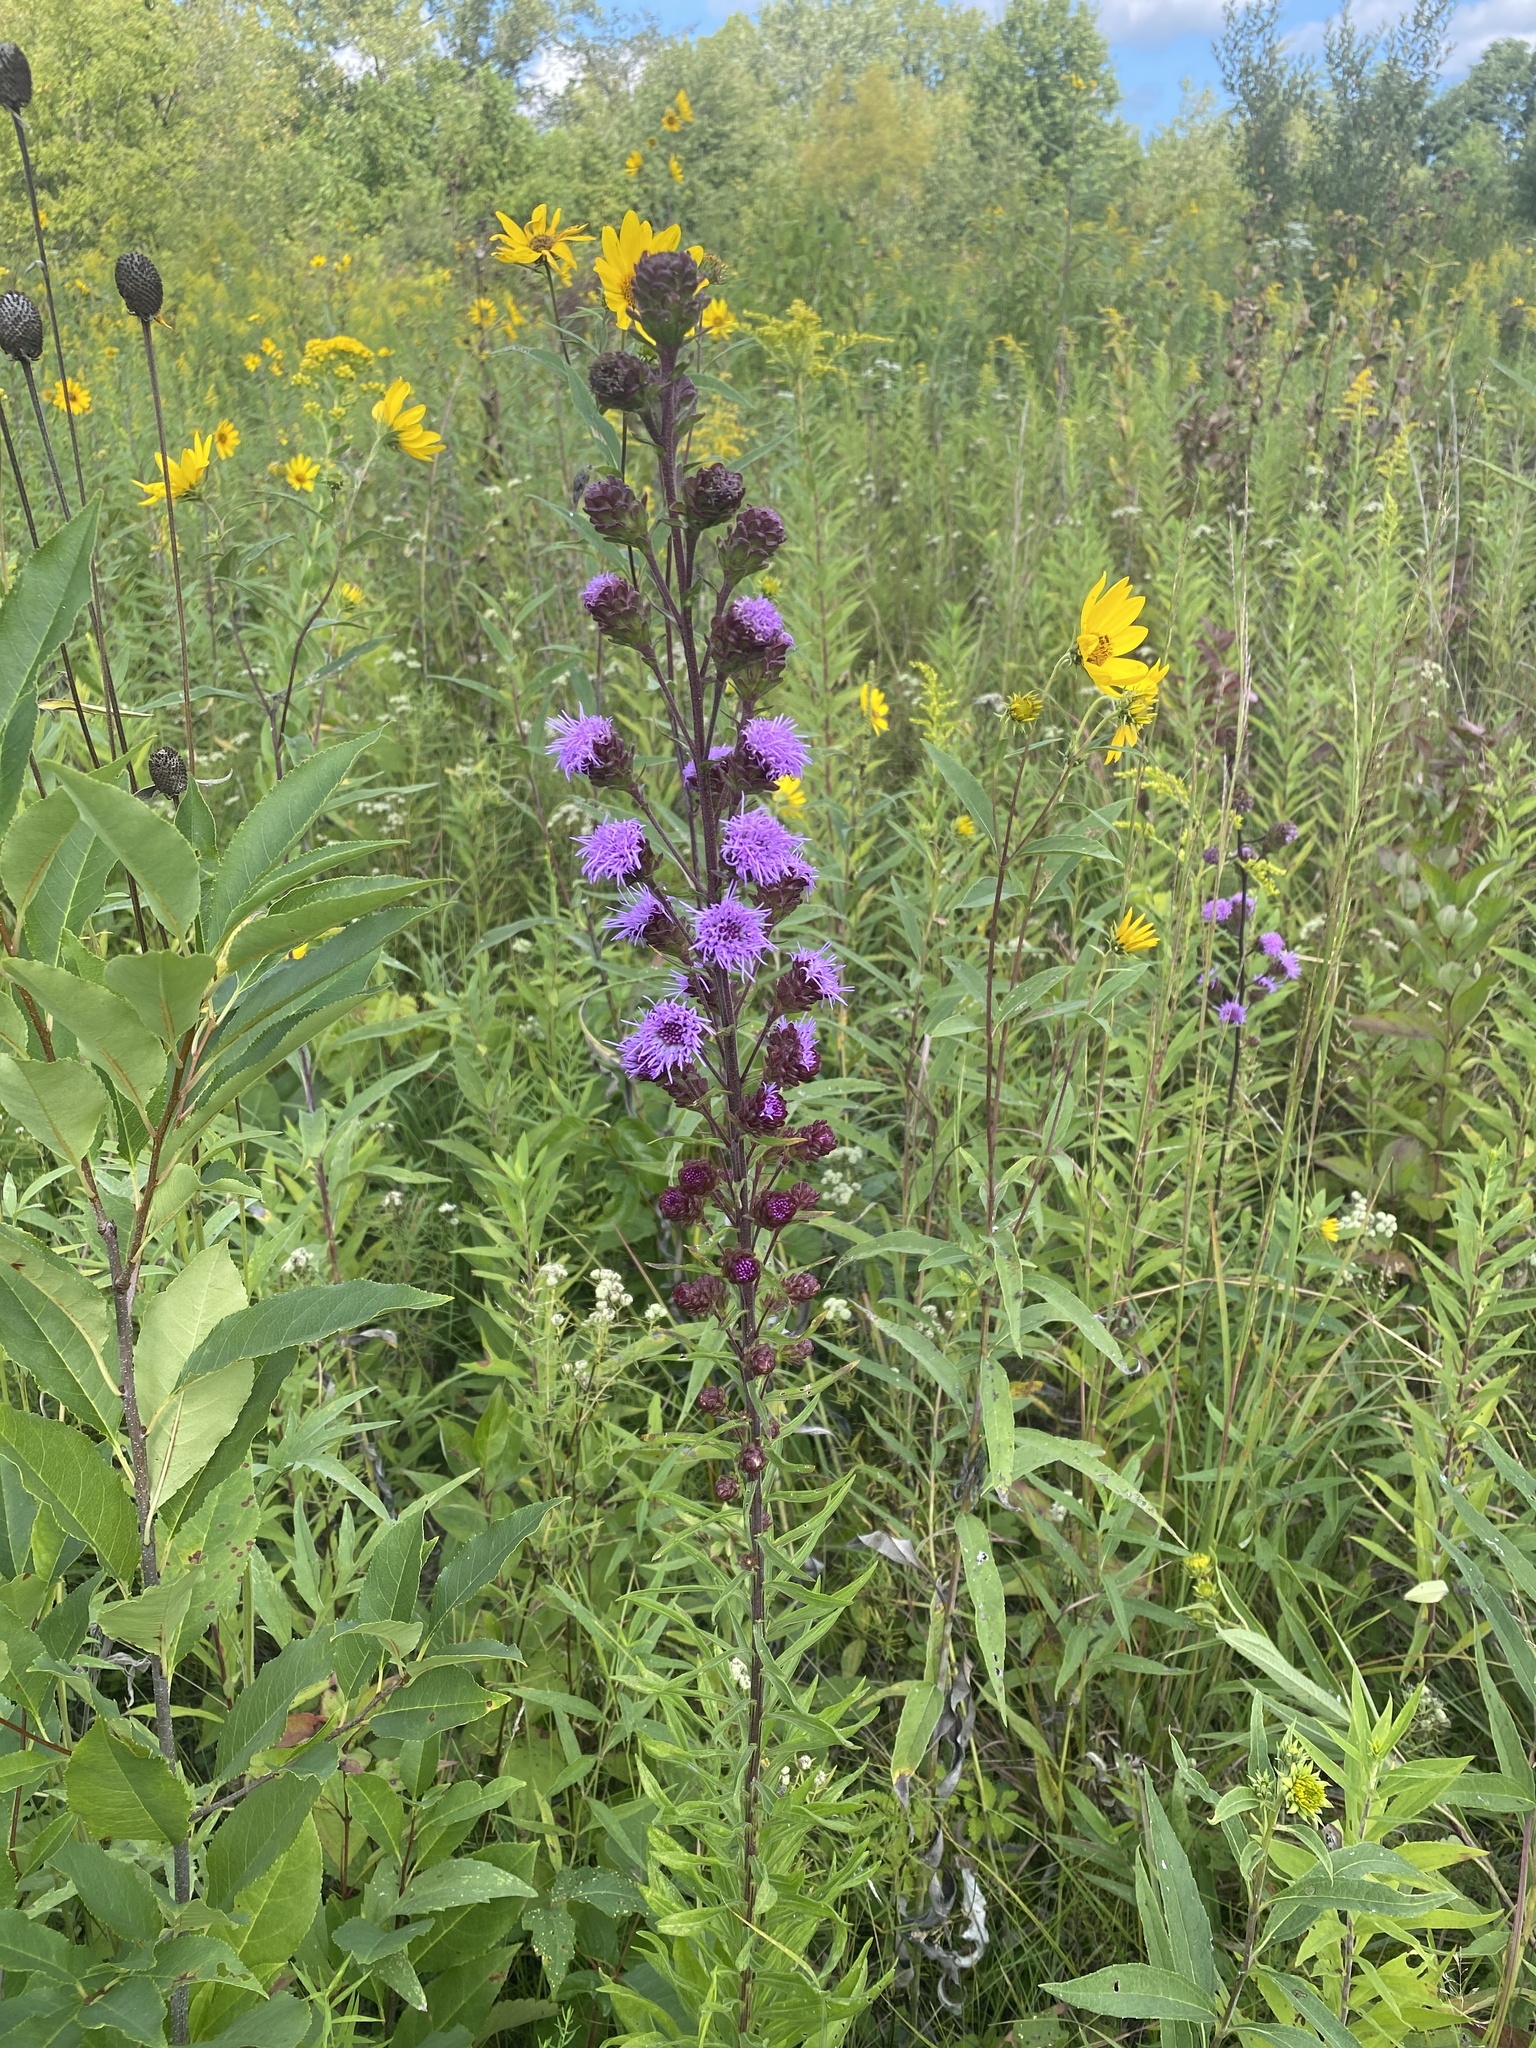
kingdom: Plantae
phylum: Tracheophyta
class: Magnoliopsida
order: Asterales
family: Asteraceae
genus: Liatris
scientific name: Liatris scariosa
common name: Northern gayfeather
